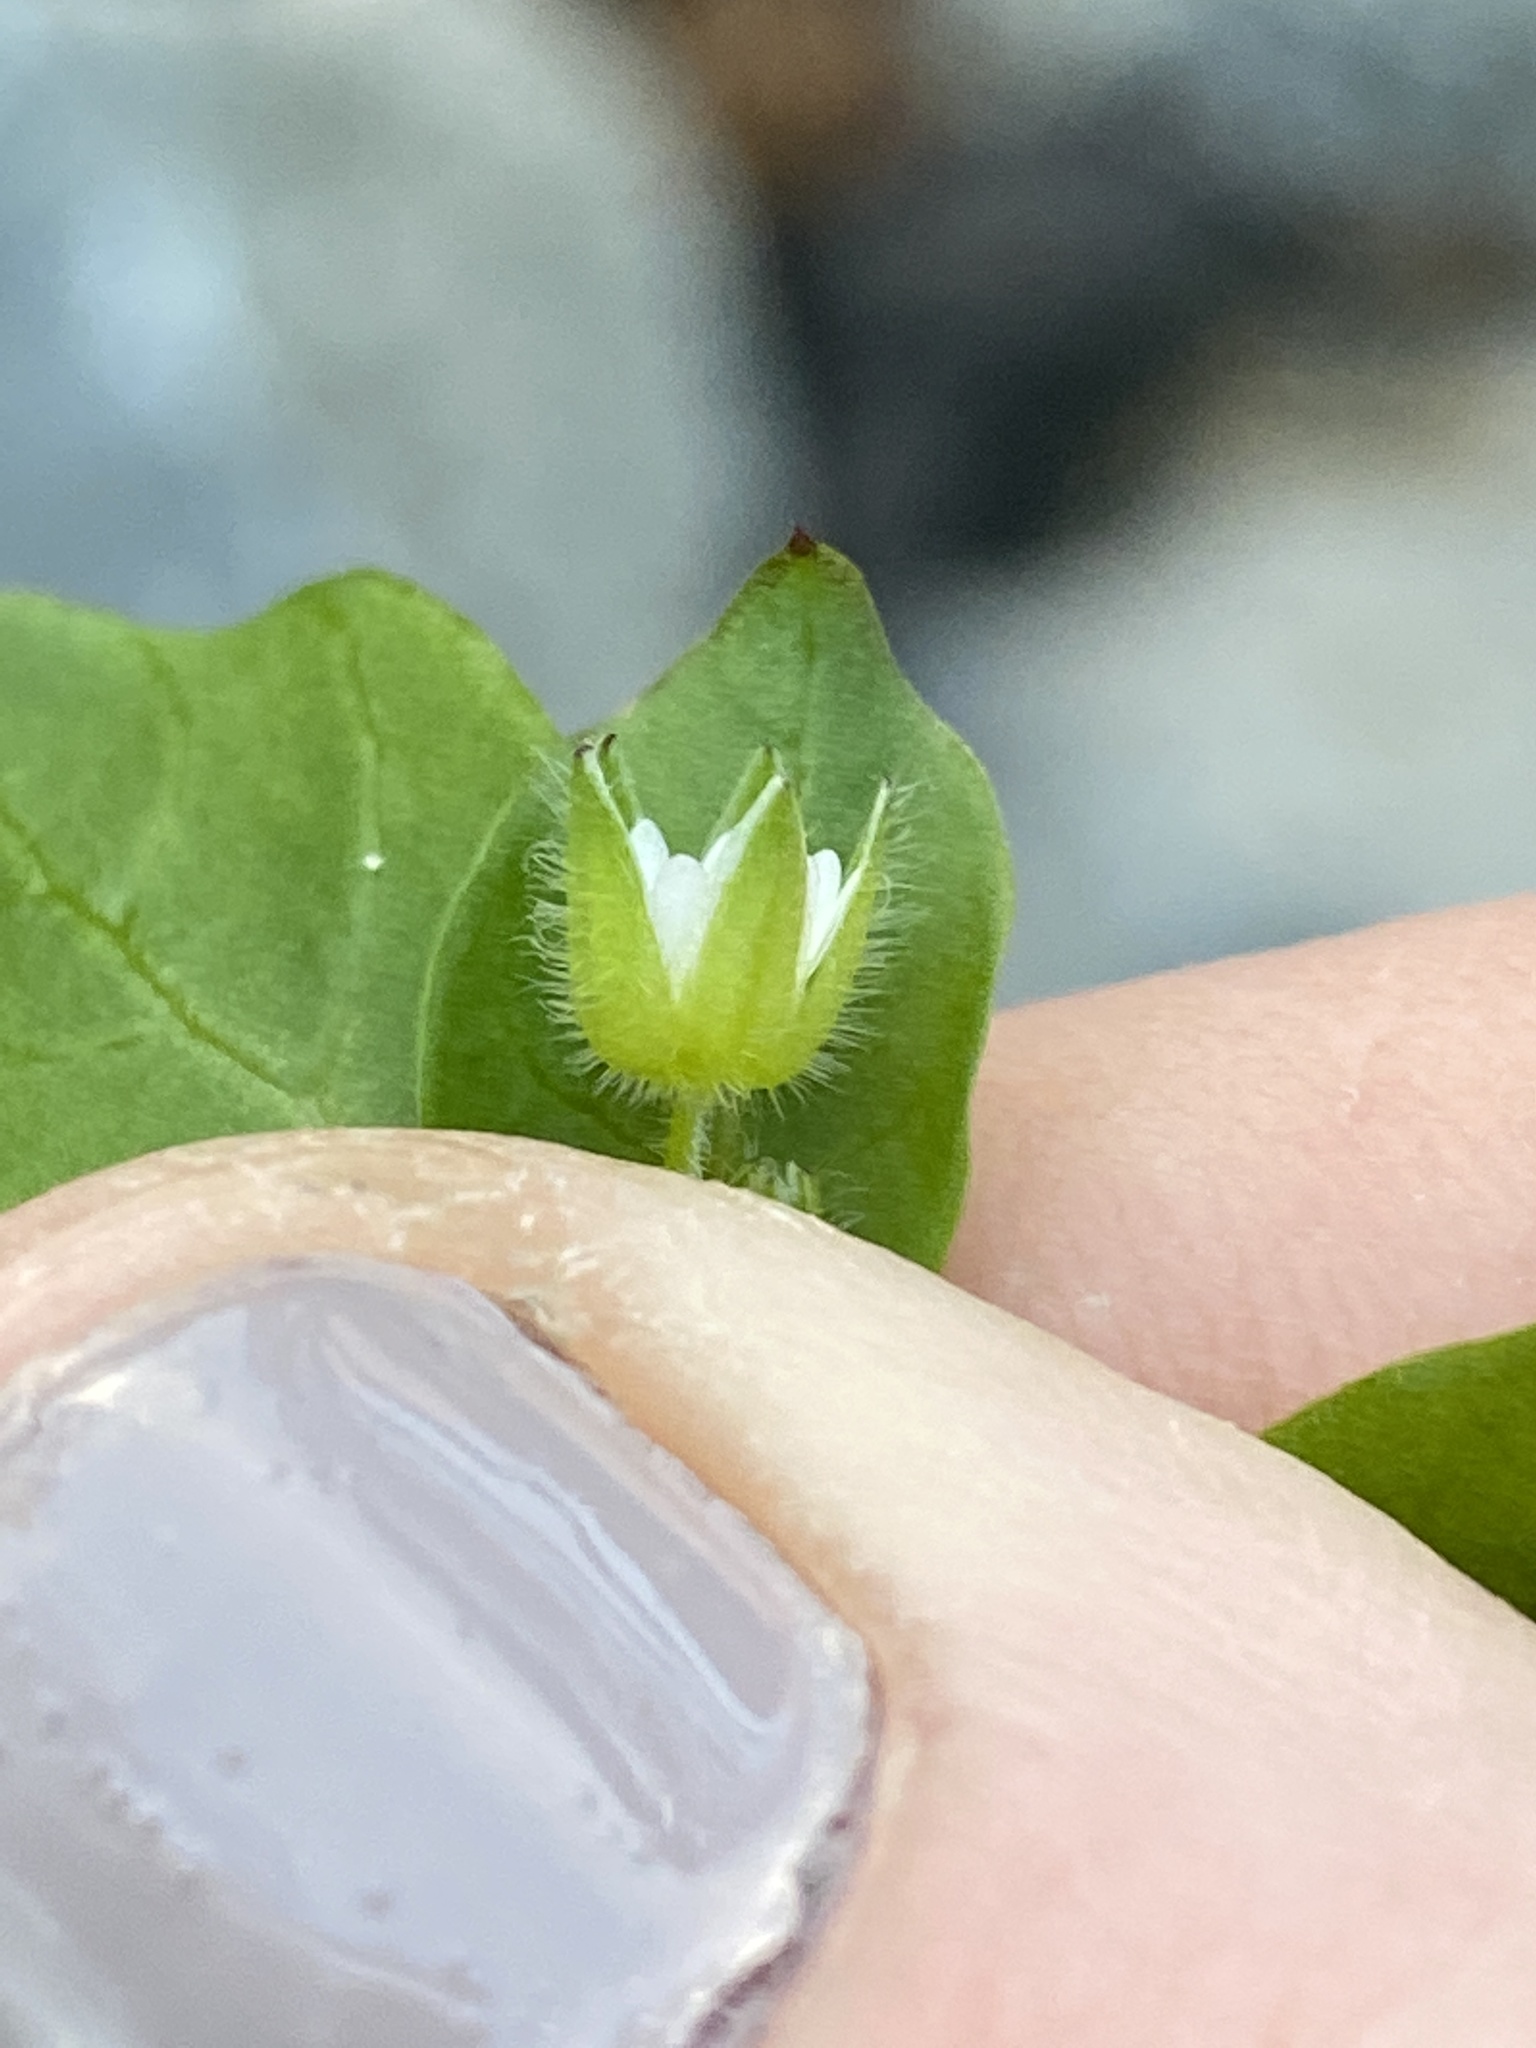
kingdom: Plantae
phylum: Tracheophyta
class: Magnoliopsida
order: Caryophyllales
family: Caryophyllaceae
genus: Stellaria
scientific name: Stellaria media
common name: Common chickweed
